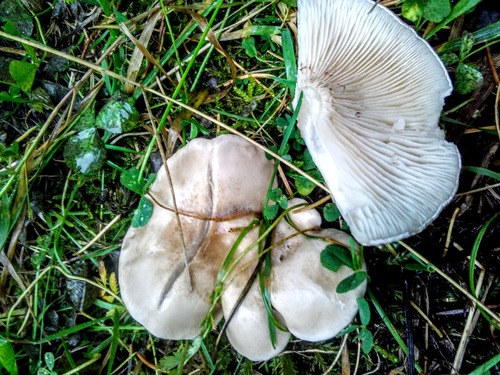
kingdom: Fungi
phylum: Basidiomycota
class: Agaricomycetes
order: Agaricales
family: Entolomataceae
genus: Clitopilus
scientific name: Clitopilus prunulus
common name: The miller
